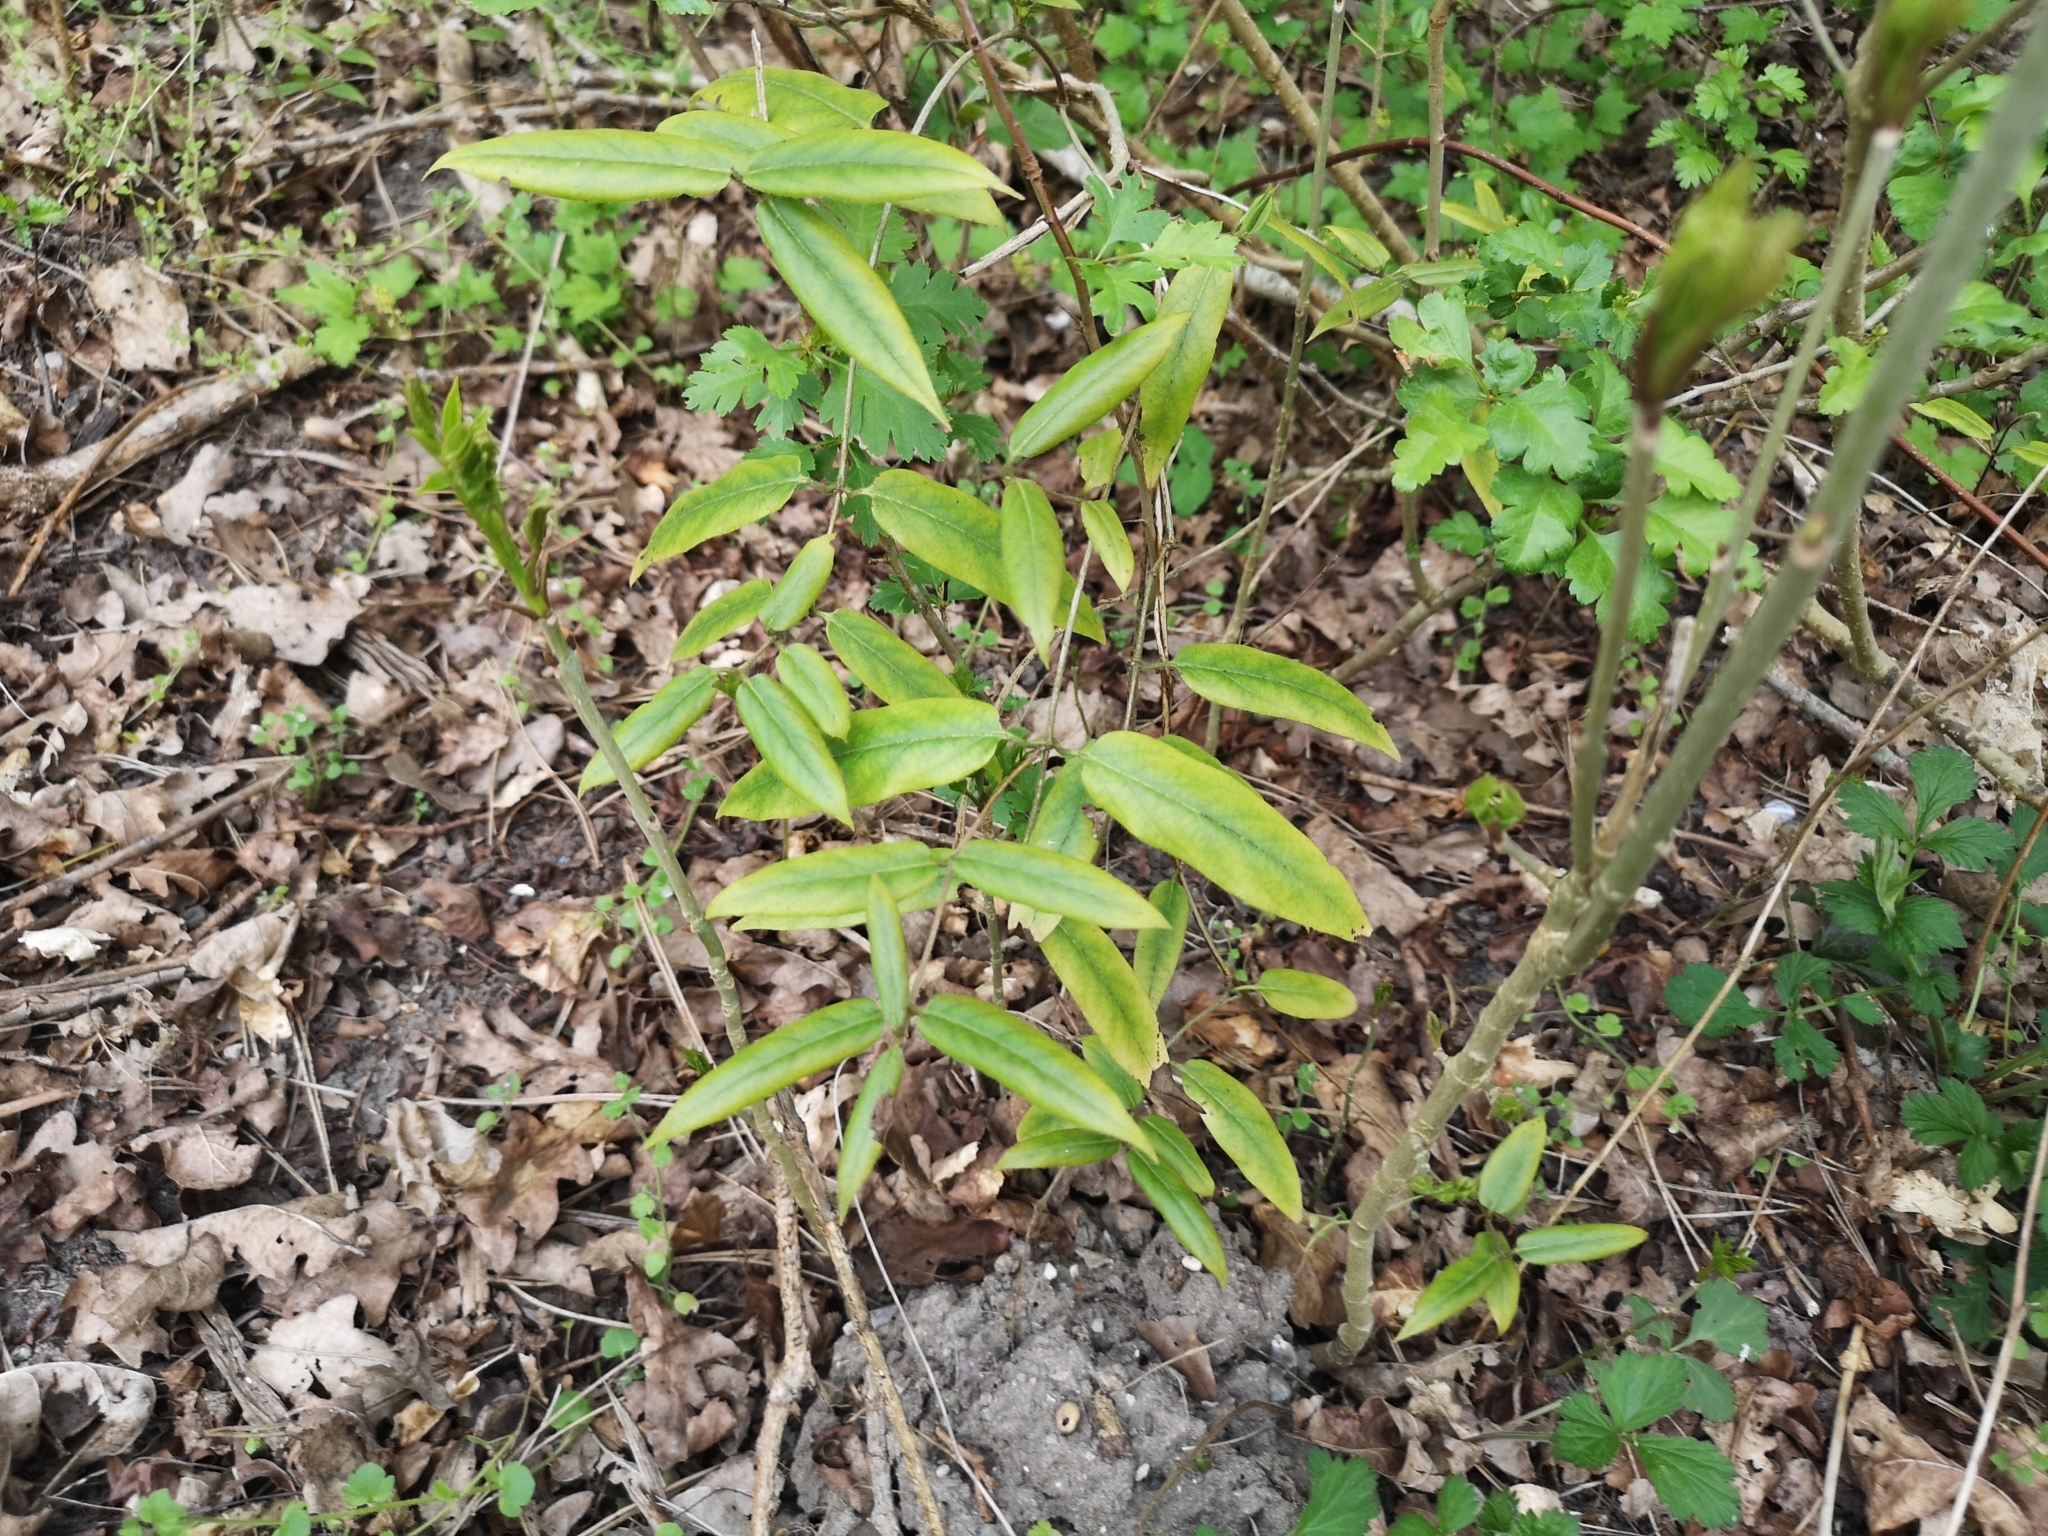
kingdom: Plantae
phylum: Tracheophyta
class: Magnoliopsida
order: Dipsacales
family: Caprifoliaceae
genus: Lonicera
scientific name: Lonicera acuminata
